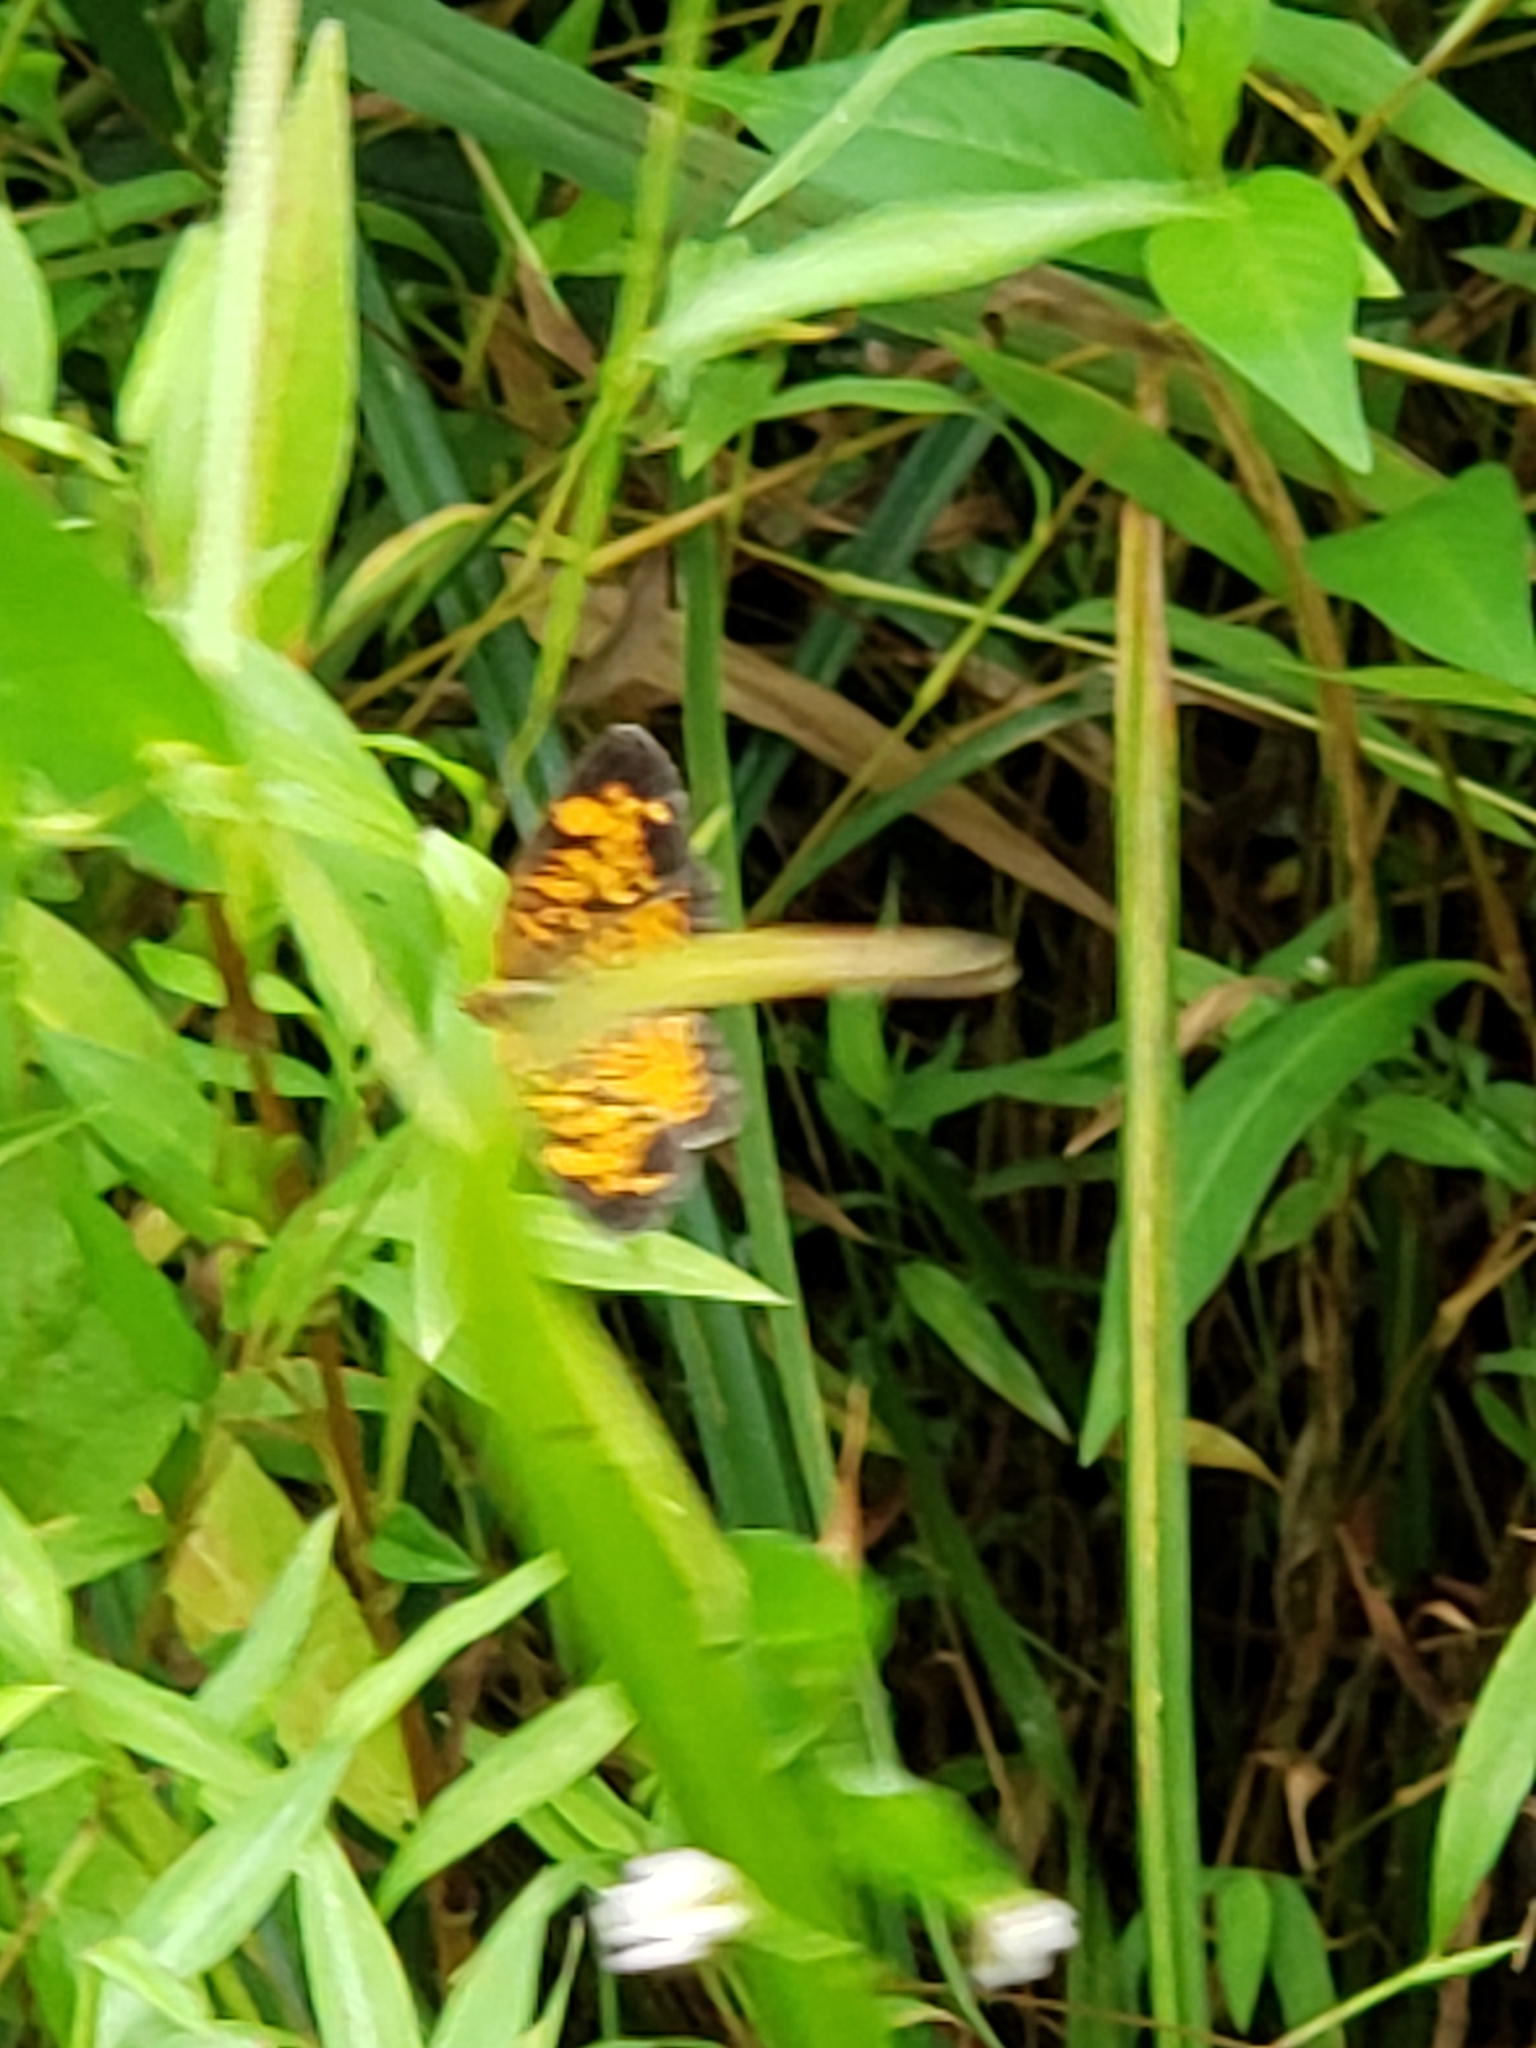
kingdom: Animalia
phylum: Arthropoda
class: Insecta
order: Lepidoptera
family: Nymphalidae
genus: Phyciodes
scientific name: Phyciodes tharos
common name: Pearl crescent
